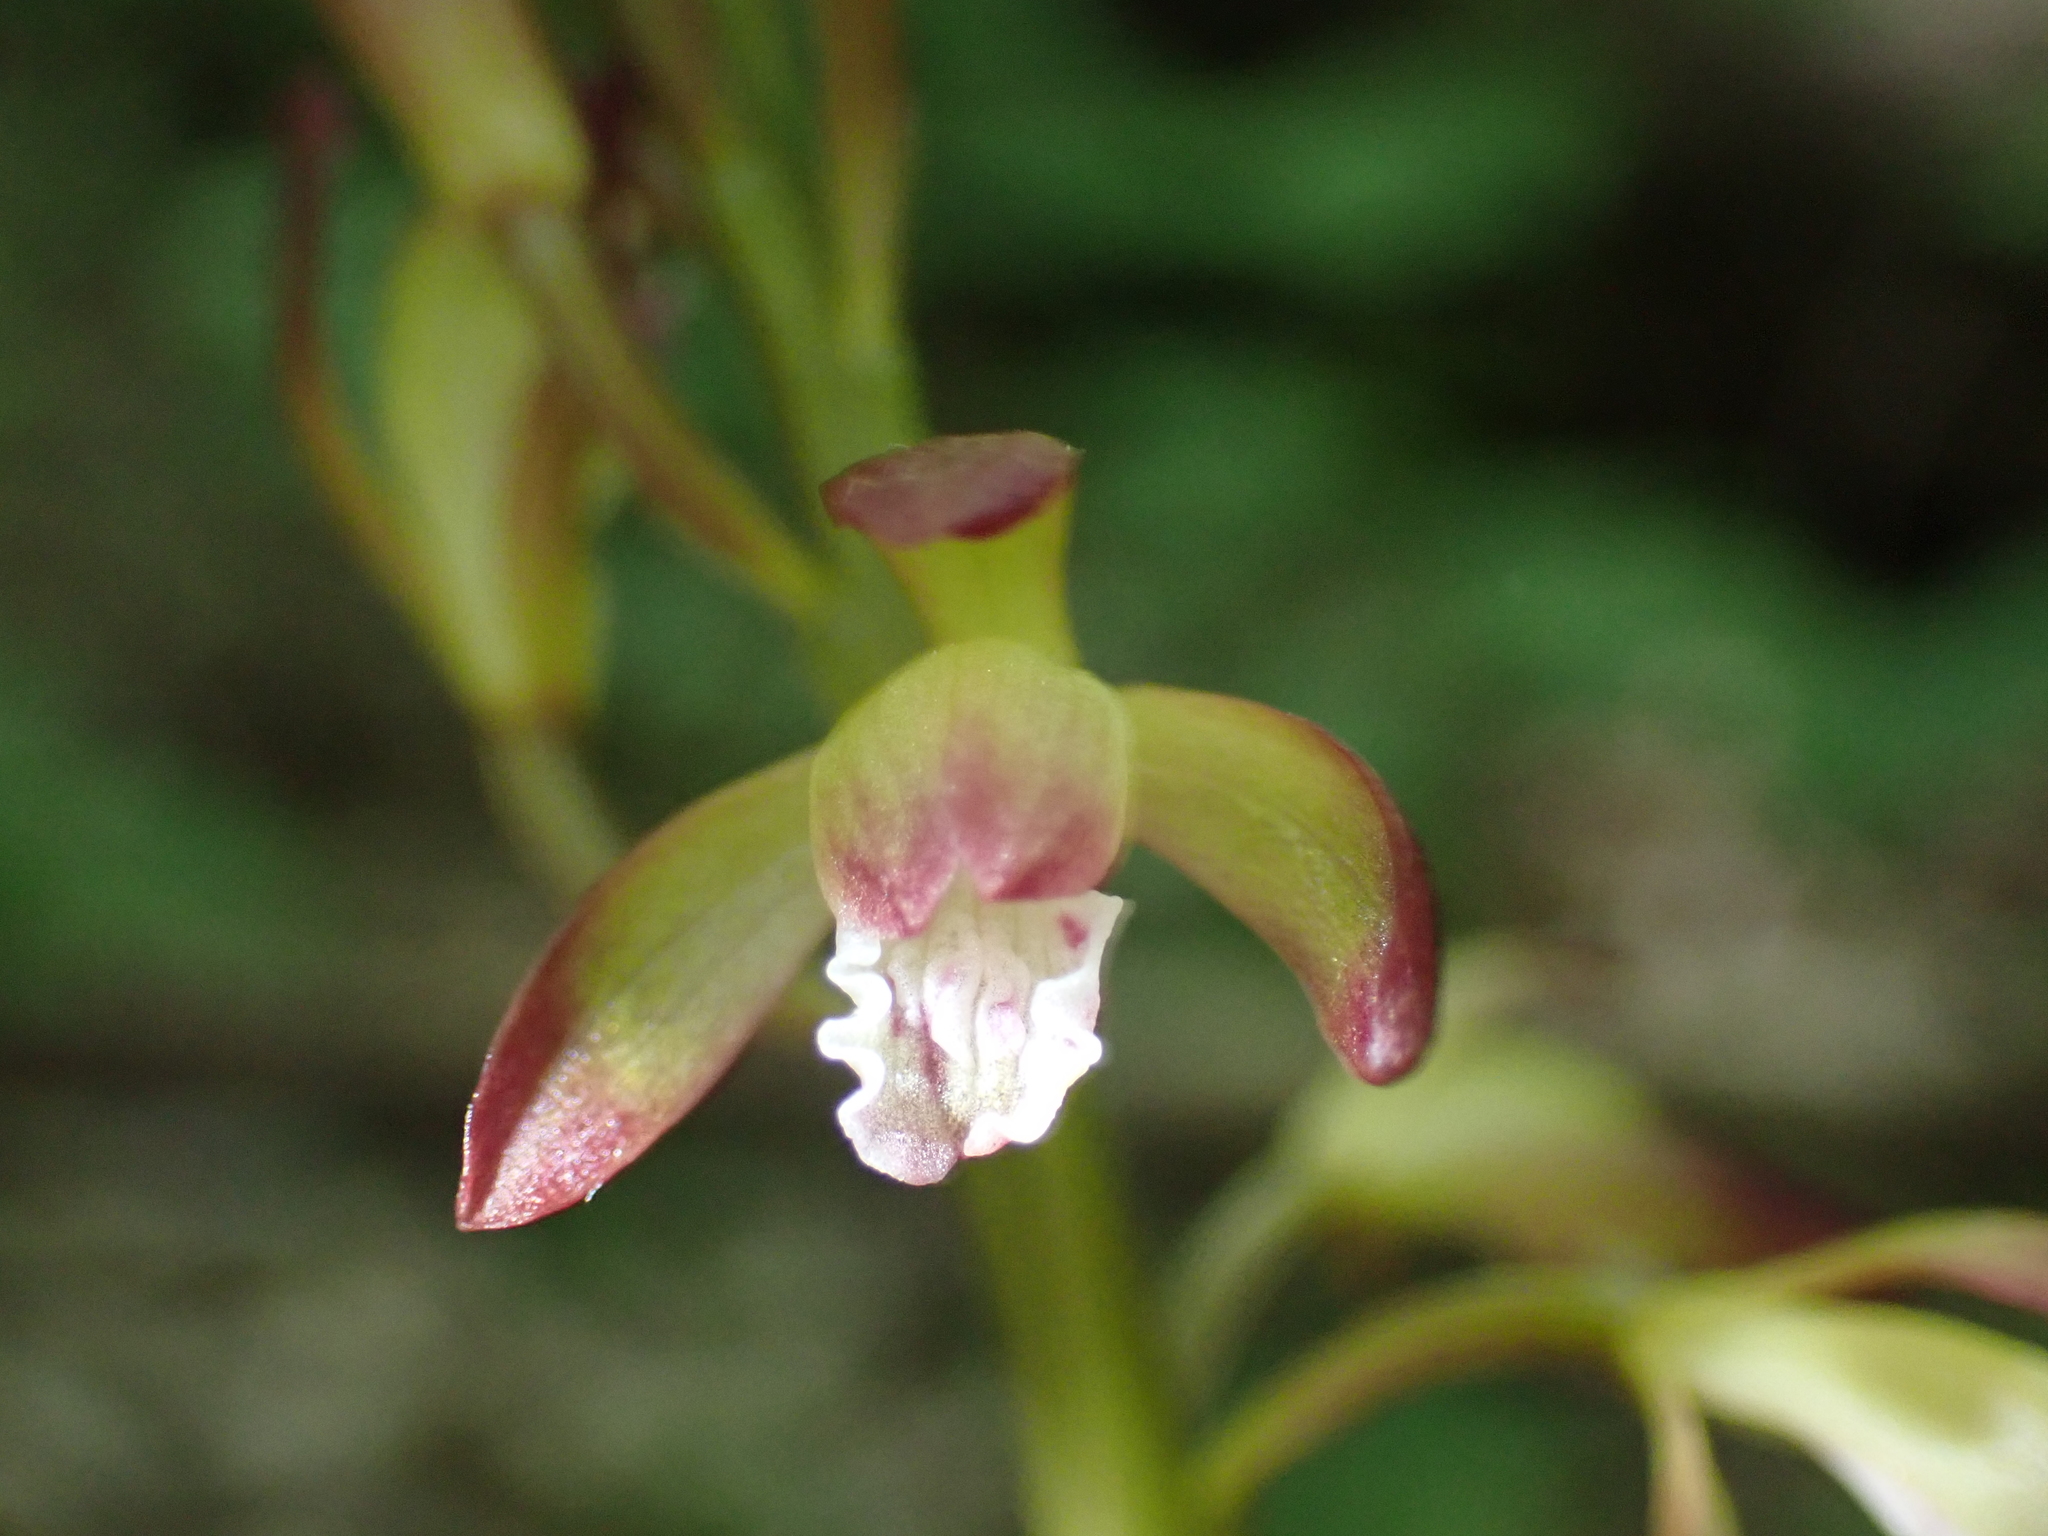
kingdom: Plantae
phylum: Tracheophyta
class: Liliopsida
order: Asparagales
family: Orchidaceae
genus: Aplectrum
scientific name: Aplectrum hyemale
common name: Adam-and-eve
